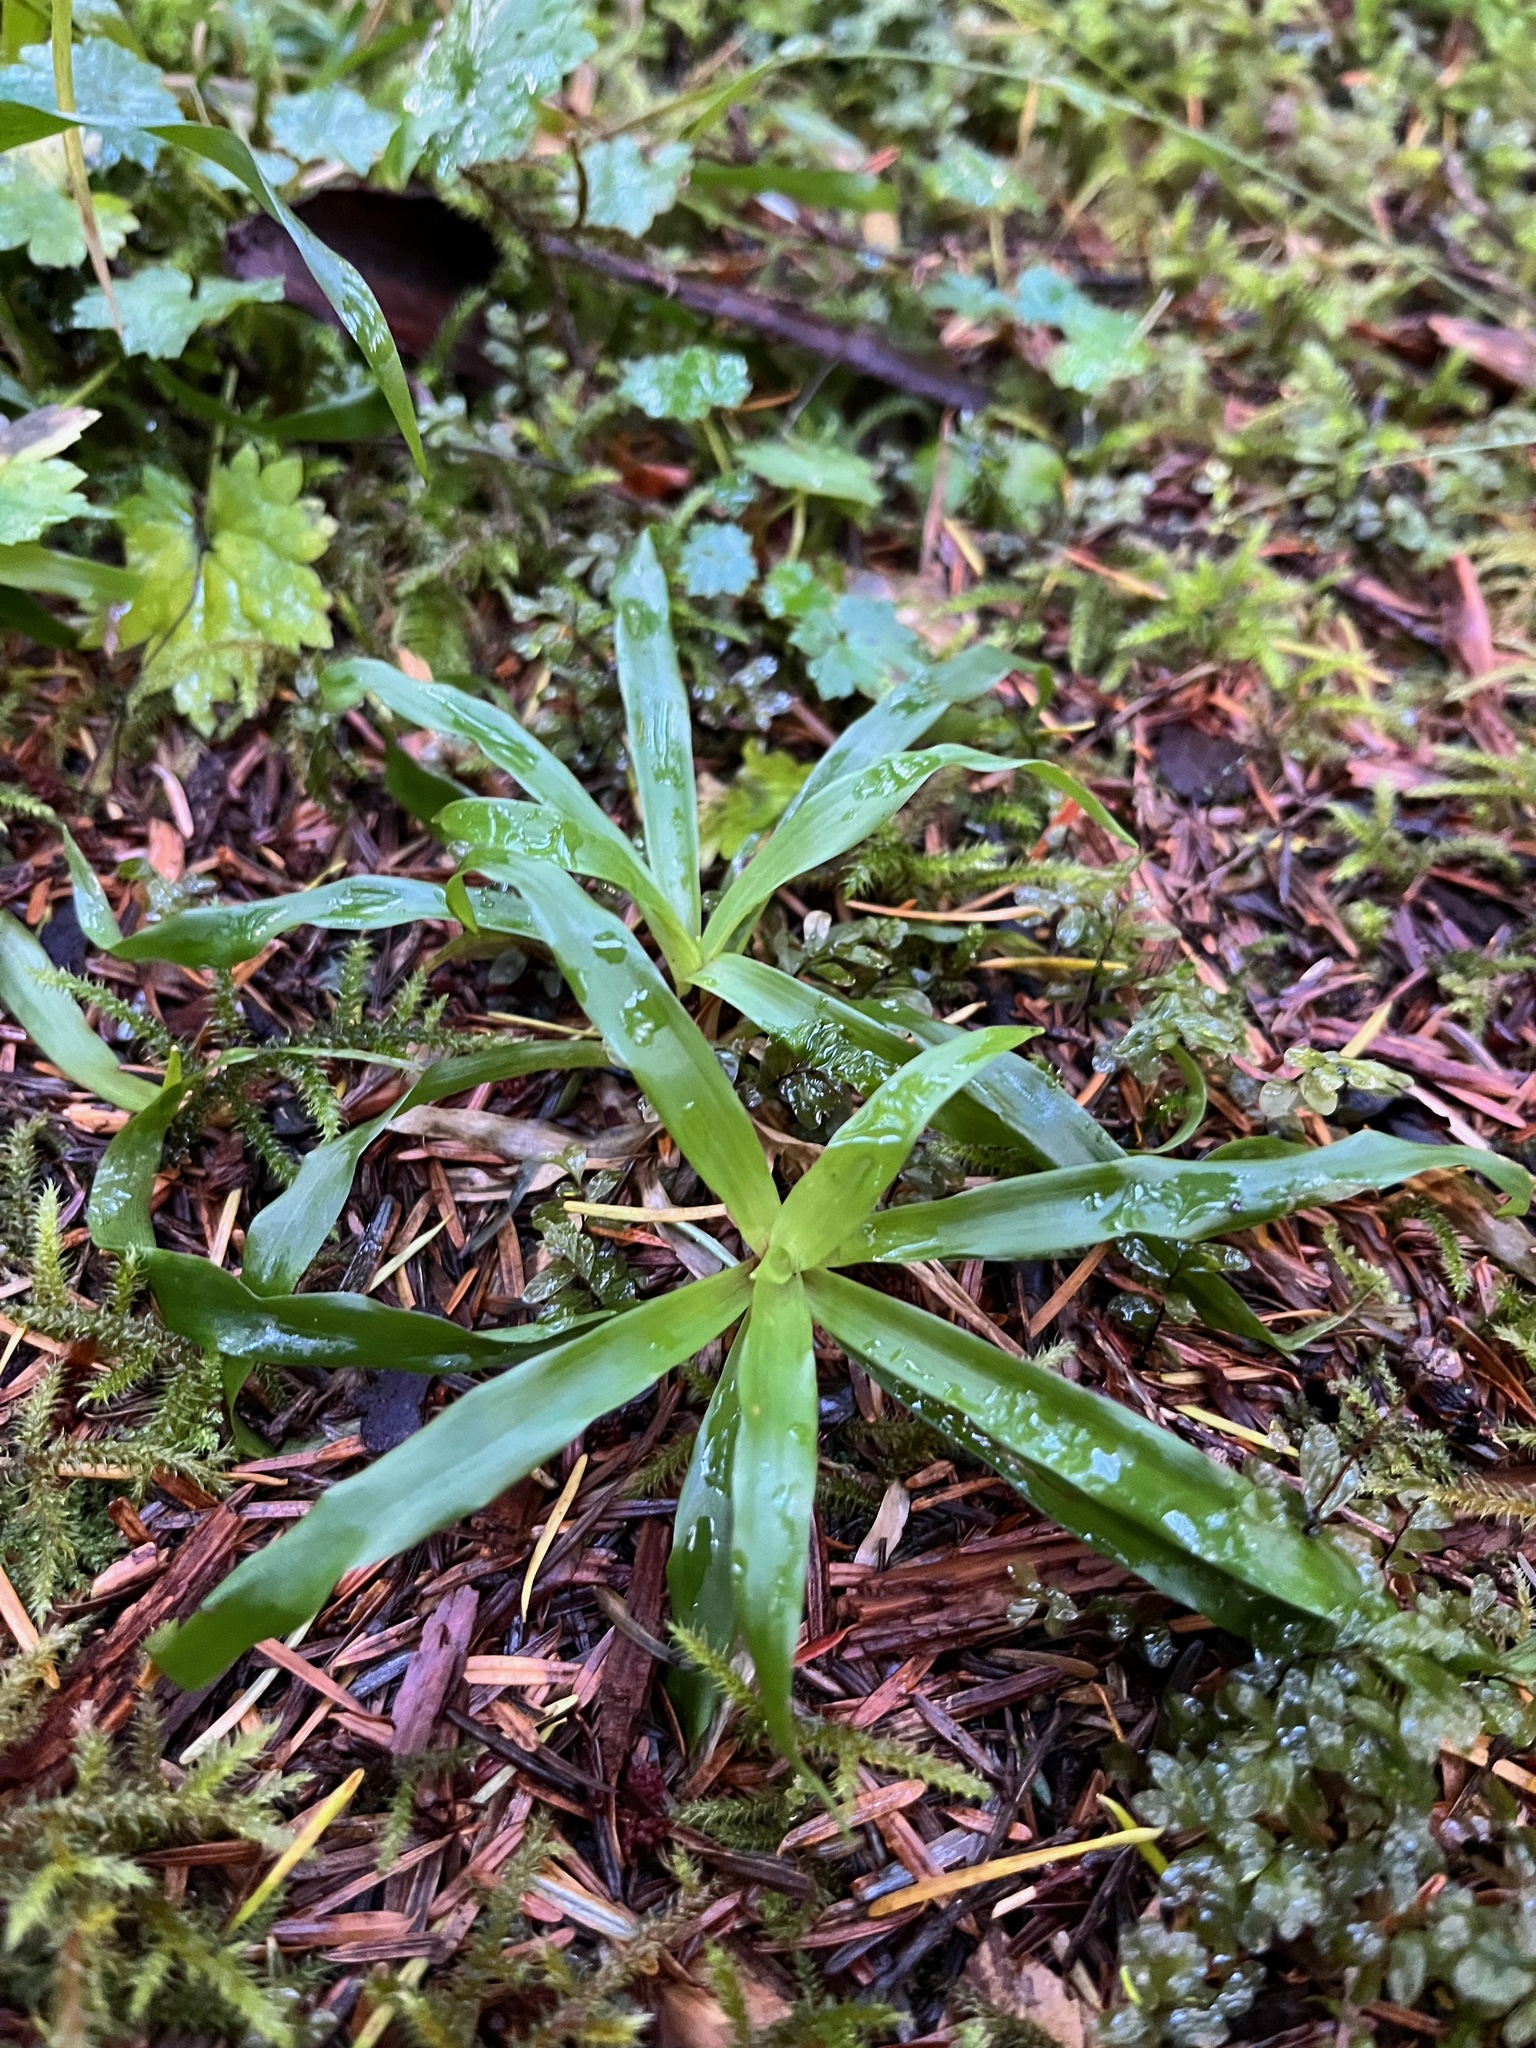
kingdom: Plantae
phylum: Tracheophyta
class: Liliopsida
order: Poales
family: Juncaceae
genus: Luzula
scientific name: Luzula parviflora
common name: Millet woodrush
